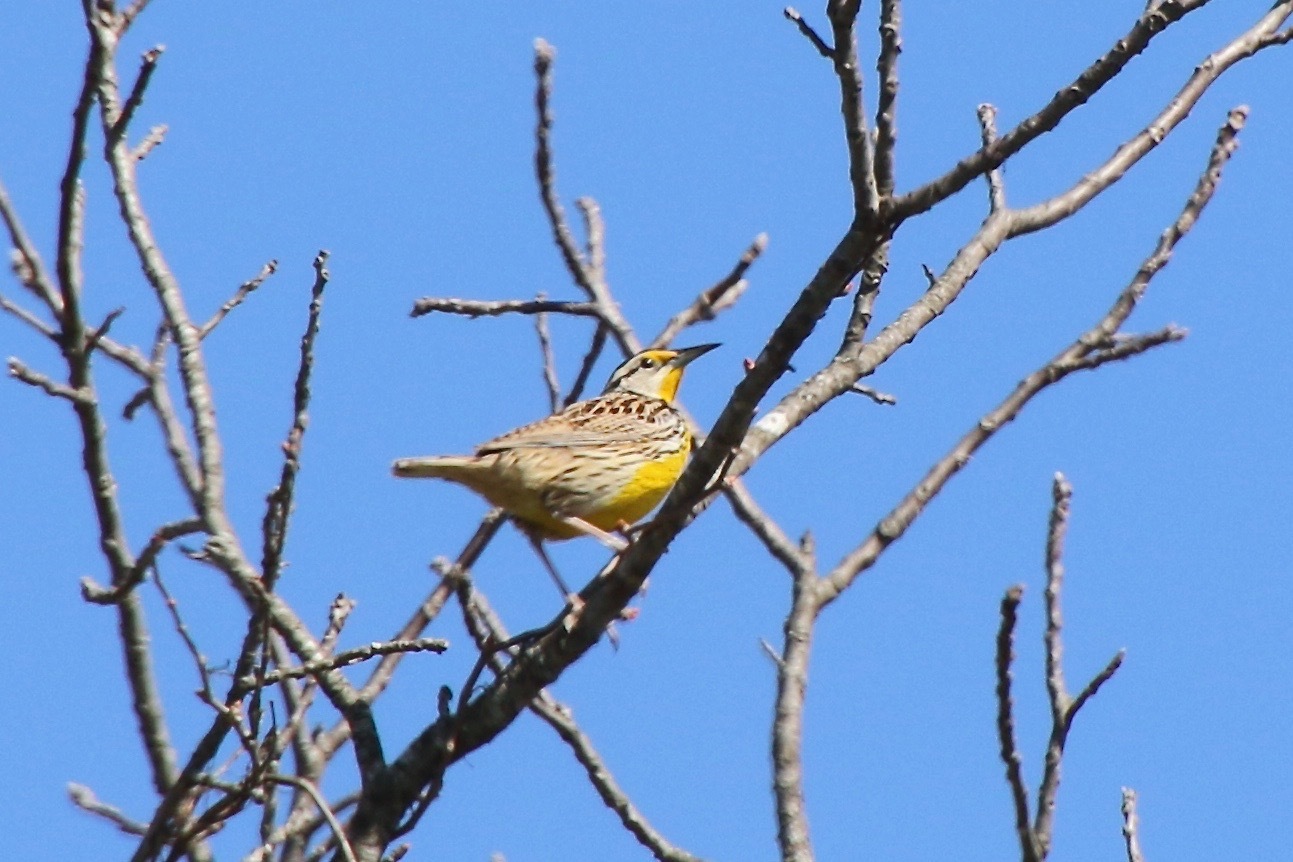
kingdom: Animalia
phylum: Chordata
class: Aves
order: Passeriformes
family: Icteridae
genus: Sturnella
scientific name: Sturnella magna
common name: Eastern meadowlark
